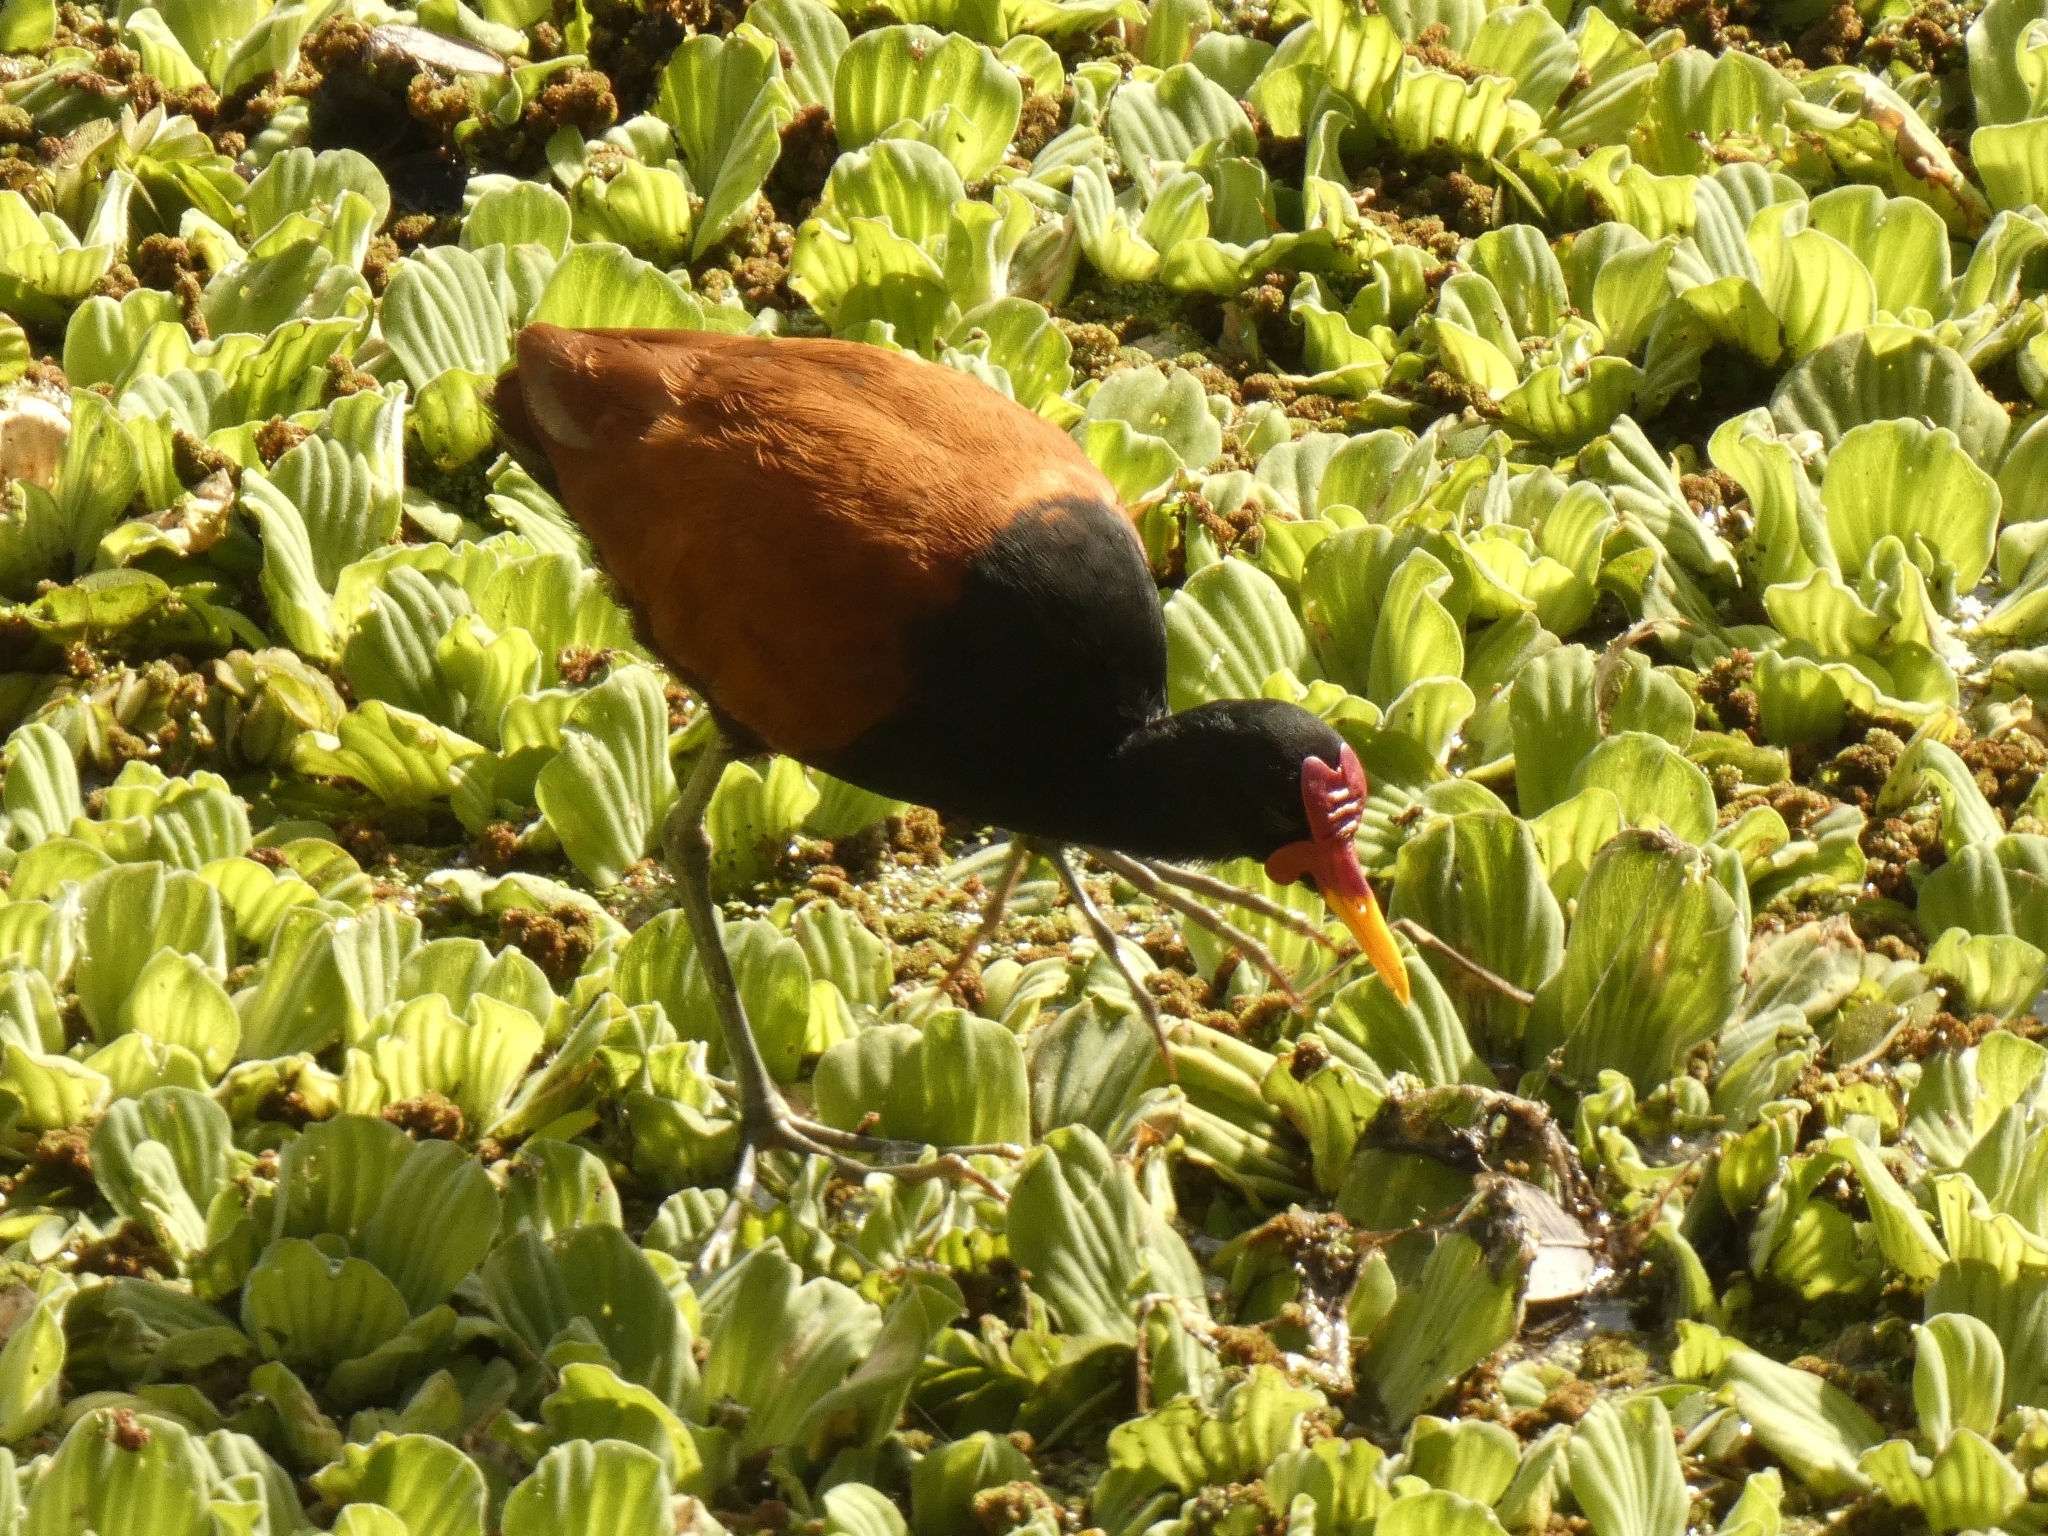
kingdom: Animalia
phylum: Chordata
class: Aves
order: Charadriiformes
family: Jacanidae
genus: Jacana
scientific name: Jacana jacana
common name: Wattled jacana
